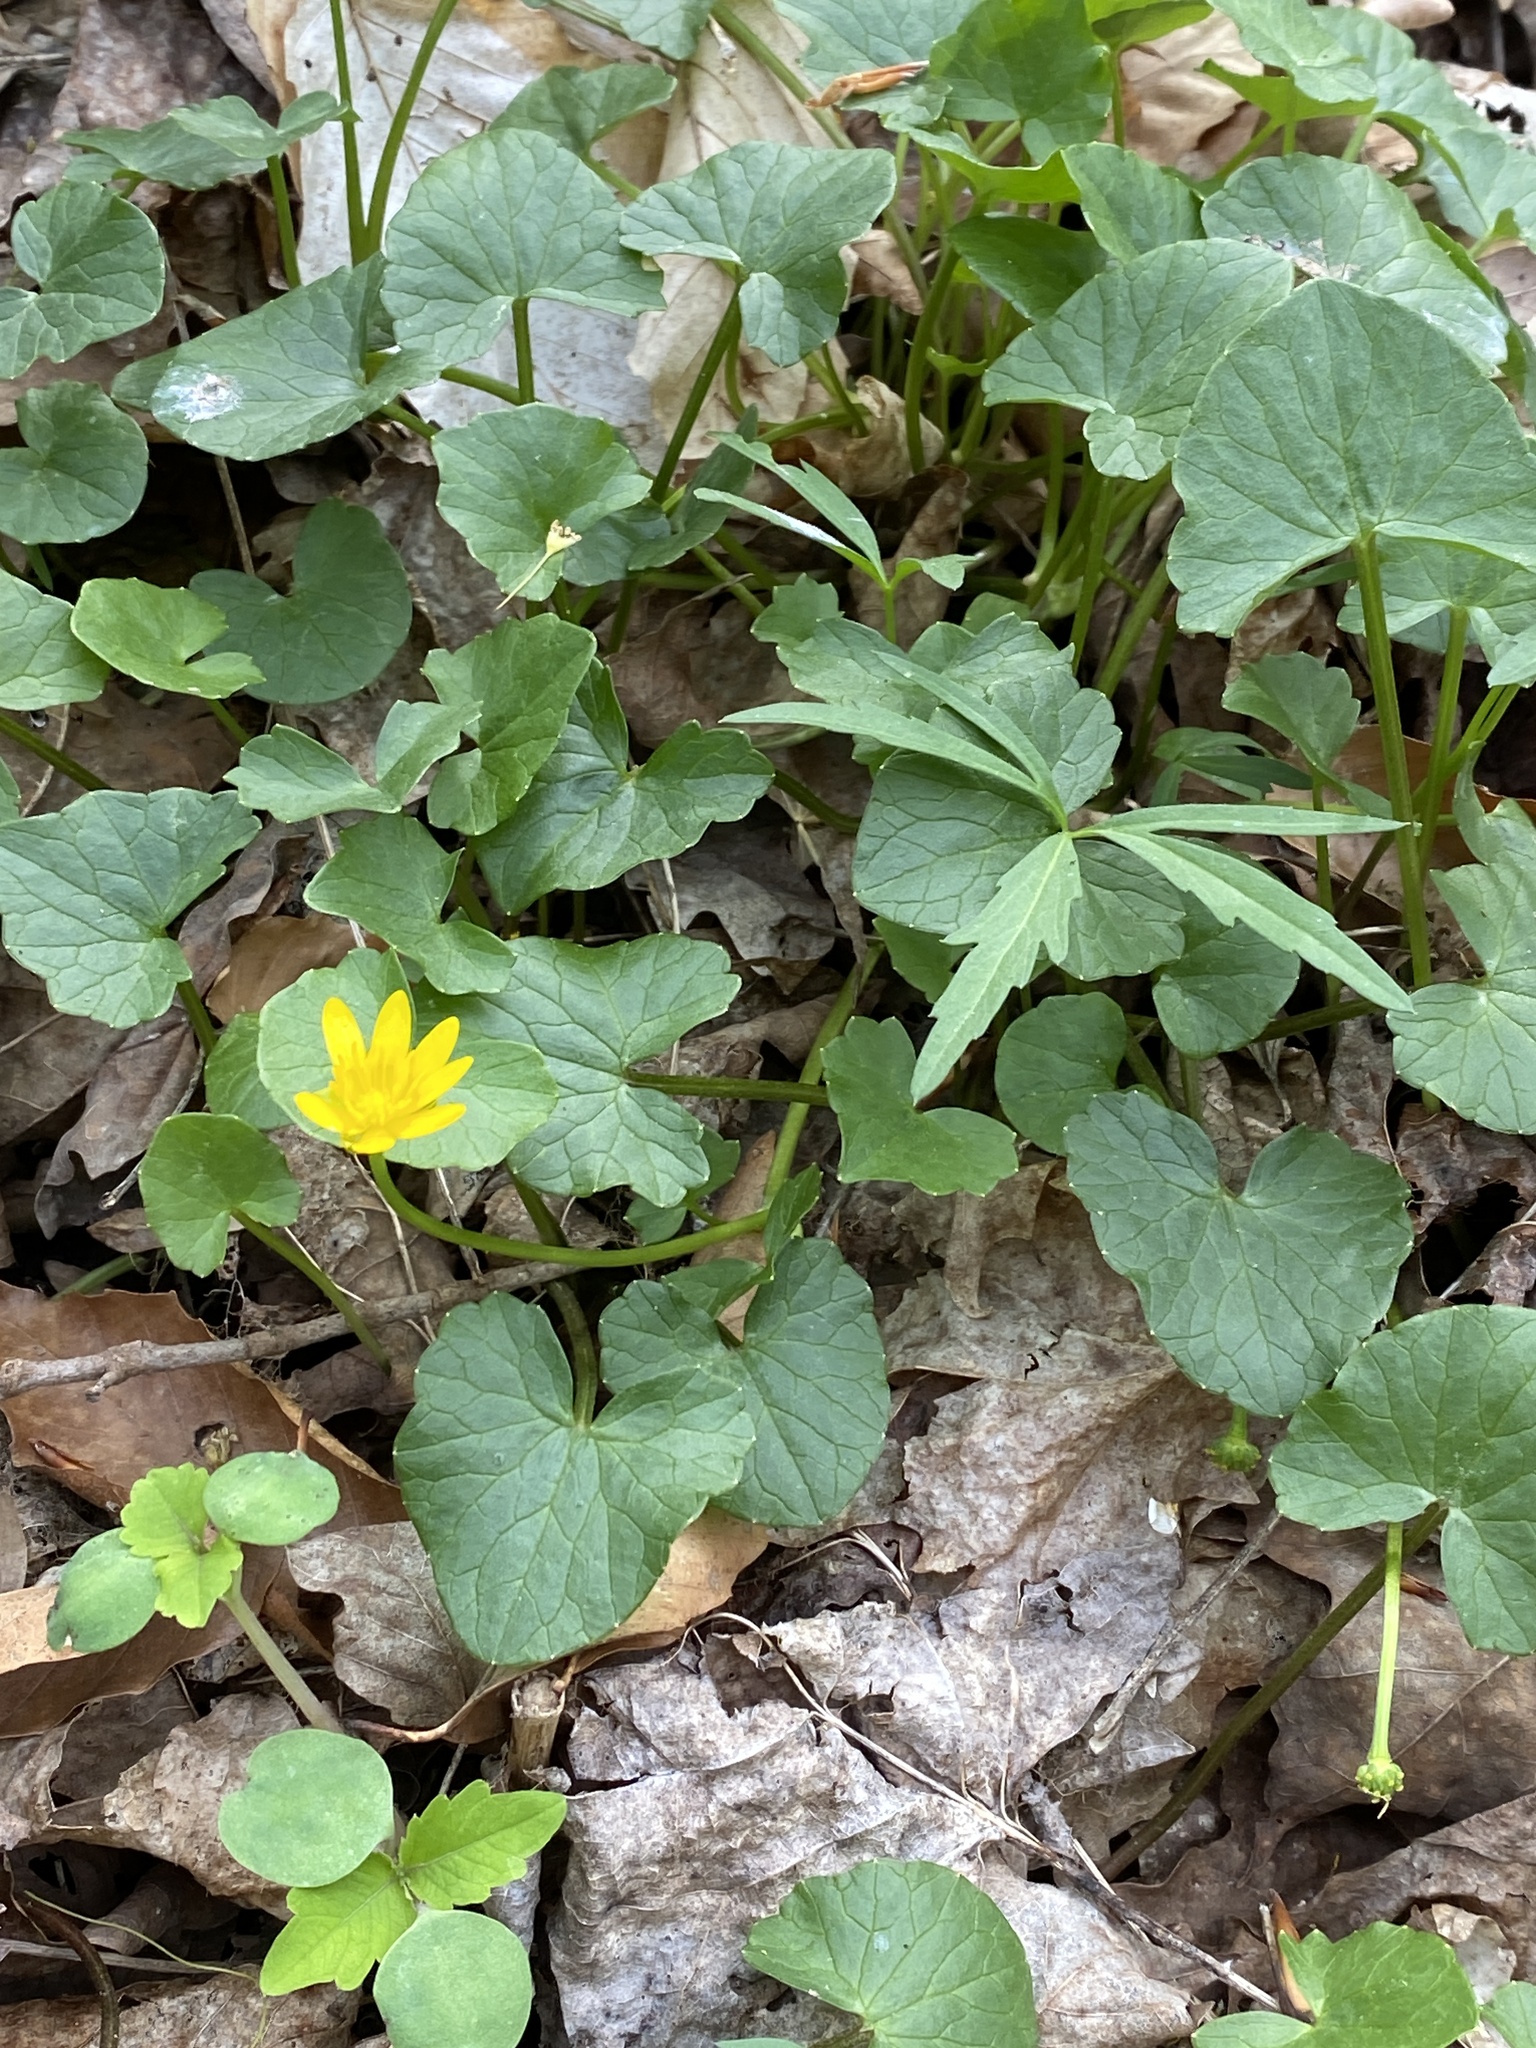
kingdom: Plantae
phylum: Tracheophyta
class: Magnoliopsida
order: Ranunculales
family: Ranunculaceae
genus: Ficaria
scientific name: Ficaria verna
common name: Lesser celandine
